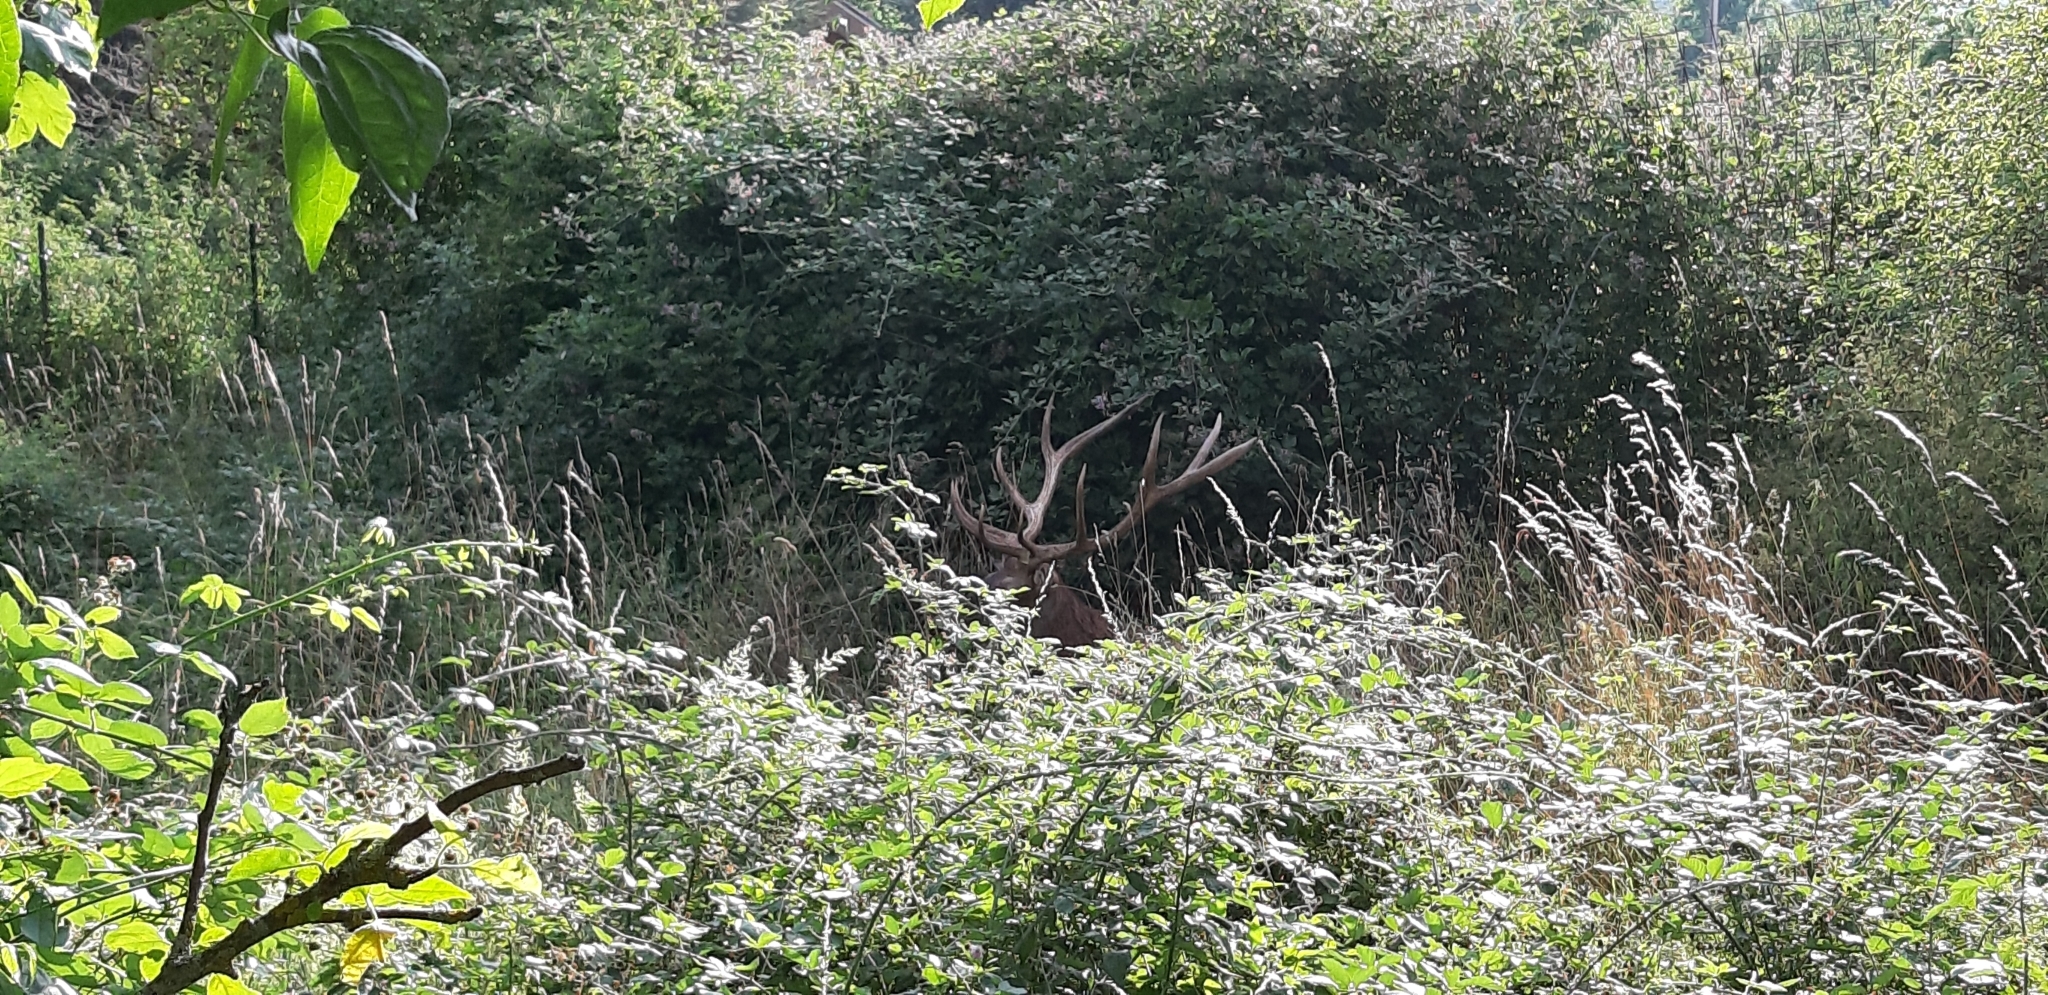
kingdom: Animalia
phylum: Chordata
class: Mammalia
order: Artiodactyla
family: Cervidae
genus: Cervus
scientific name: Cervus elaphus
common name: Red deer
